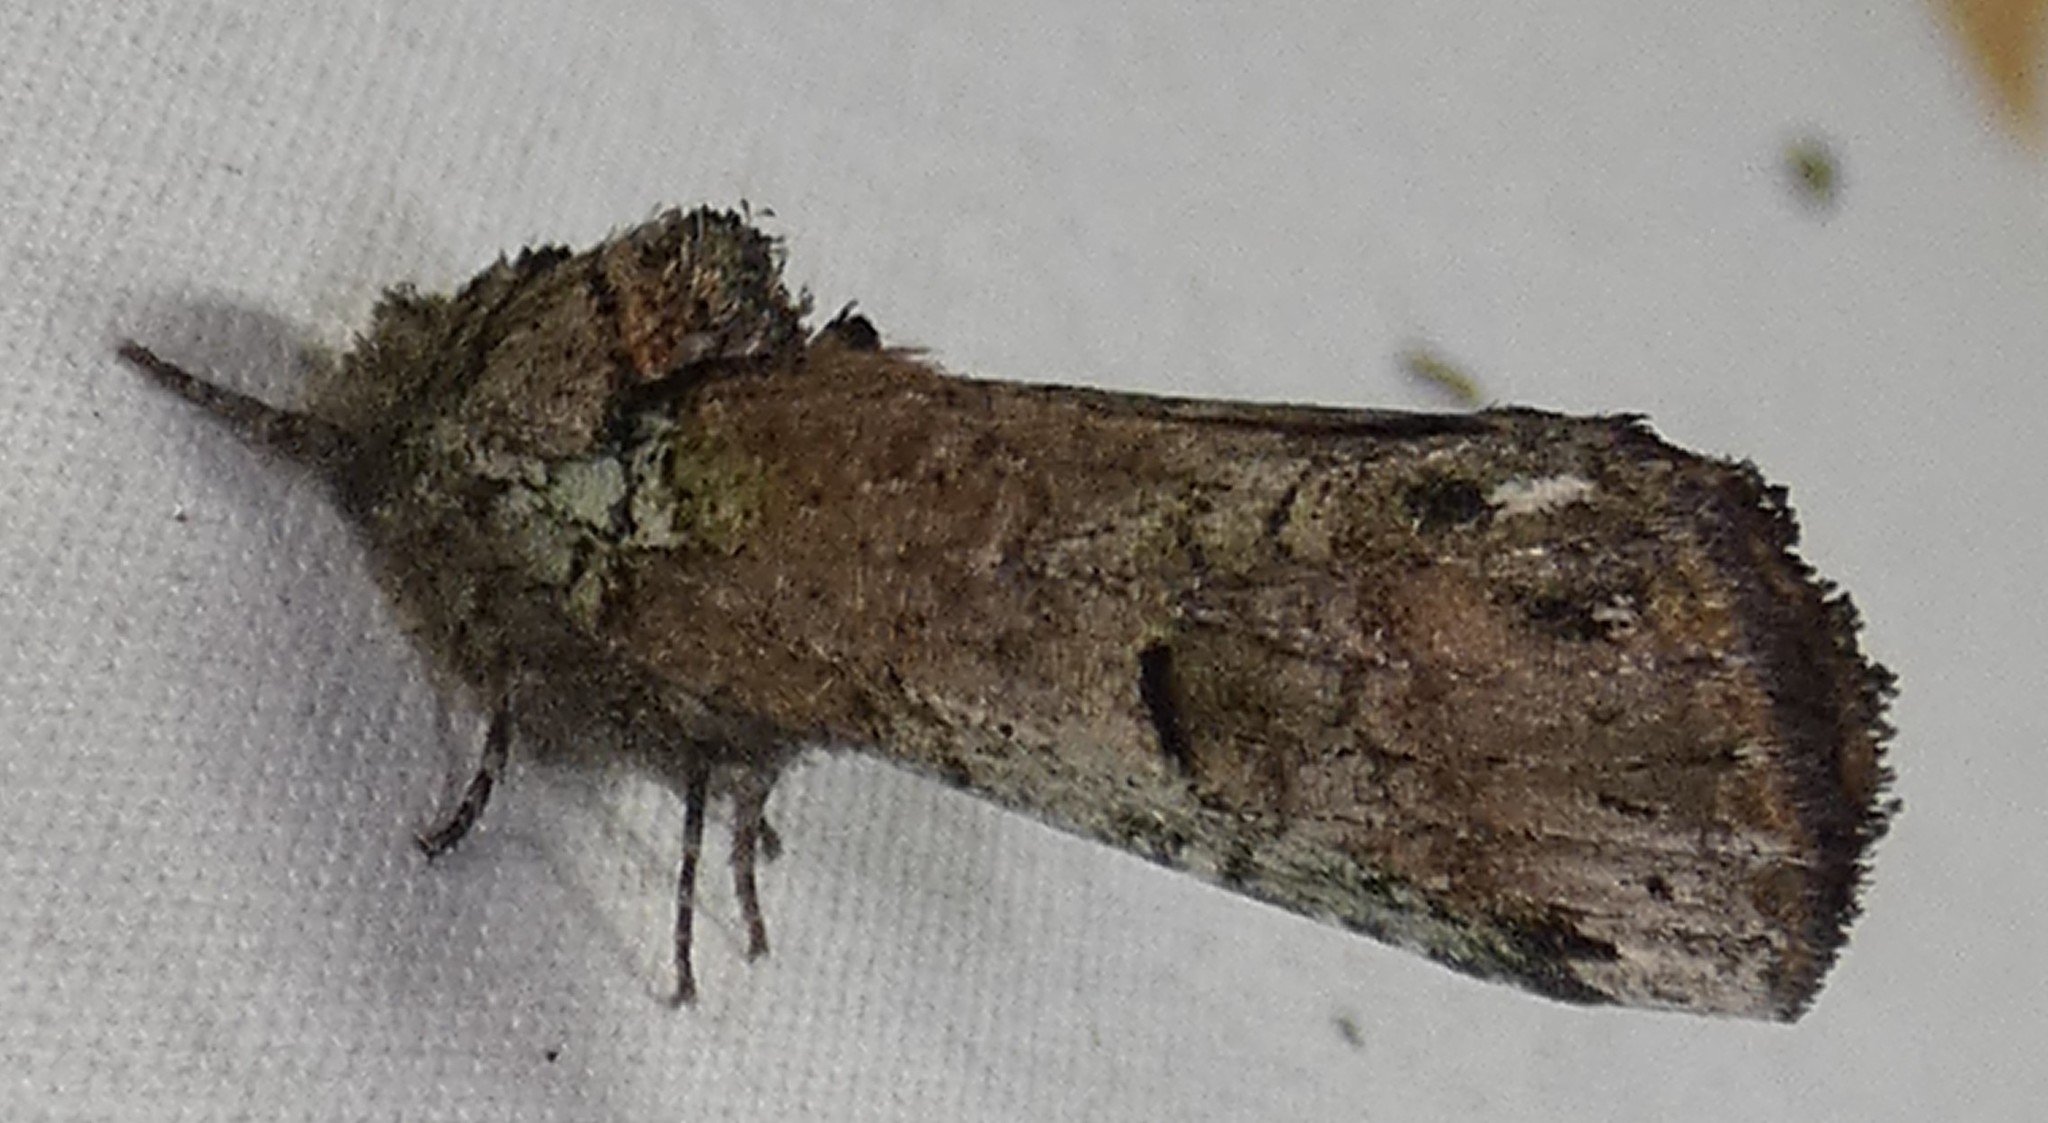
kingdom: Animalia
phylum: Arthropoda
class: Insecta
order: Lepidoptera
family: Notodontidae
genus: Schizura
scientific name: Schizura
